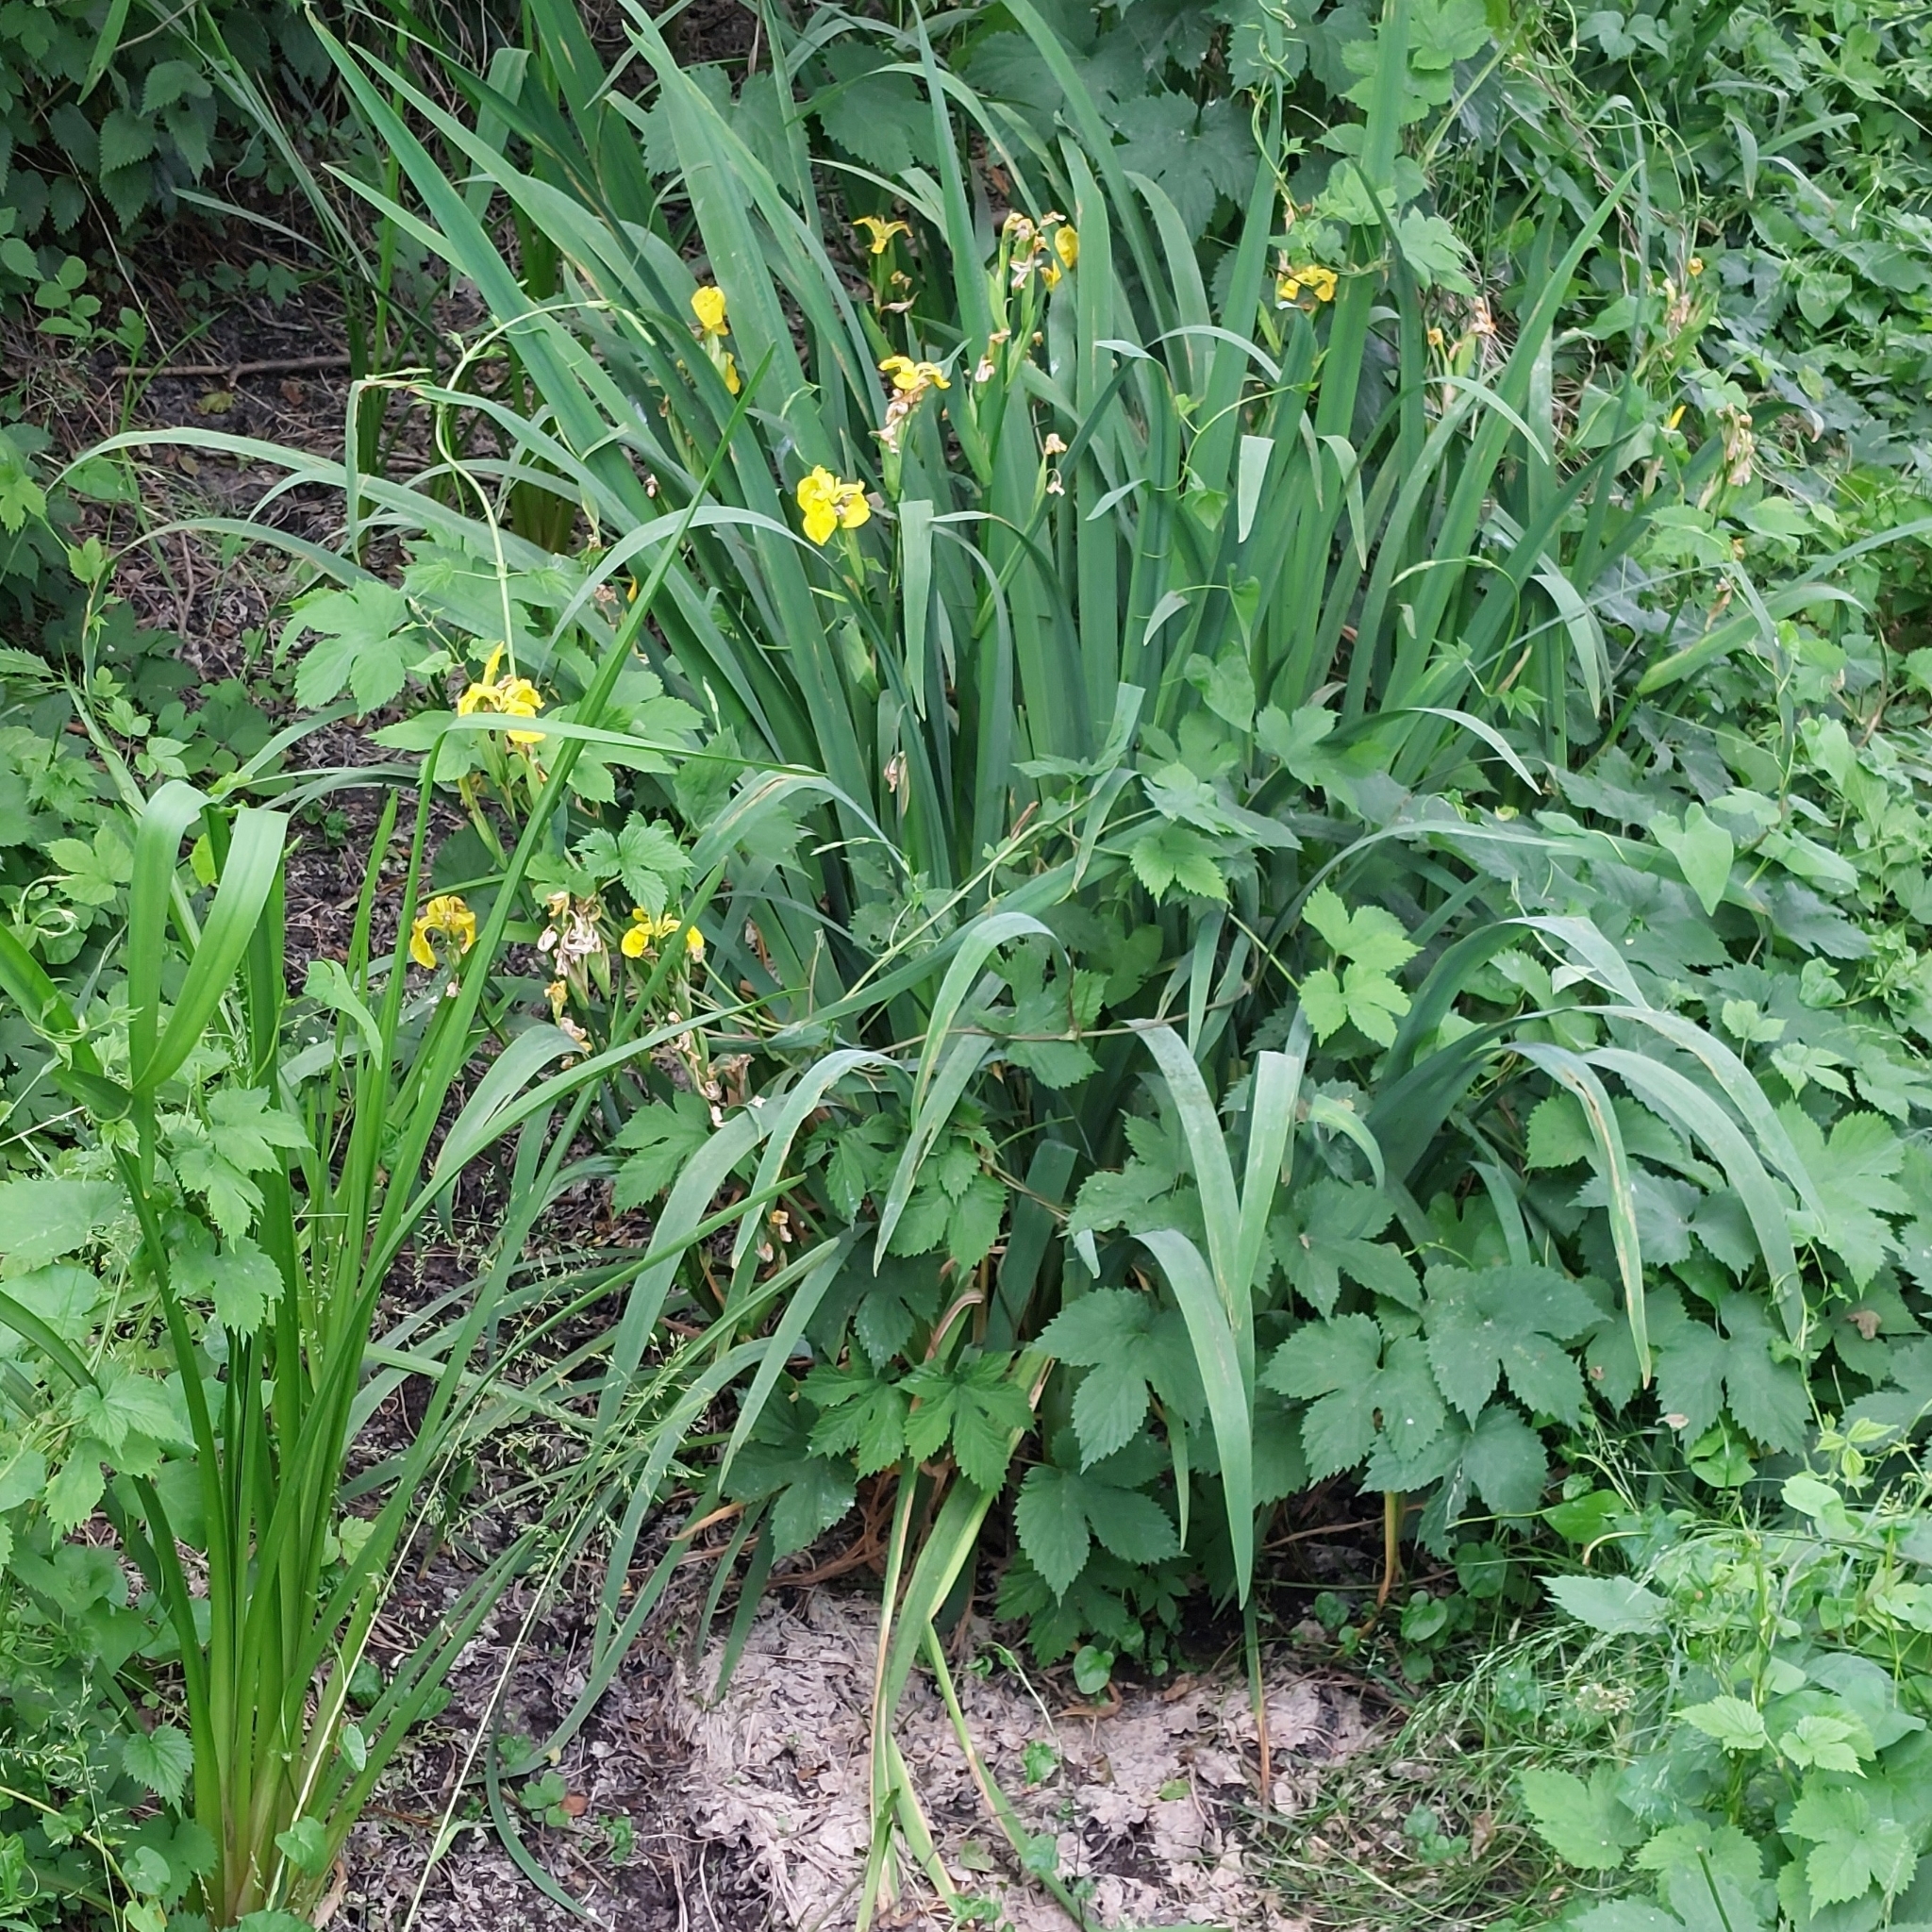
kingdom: Plantae
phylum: Tracheophyta
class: Liliopsida
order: Asparagales
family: Iridaceae
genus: Iris
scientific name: Iris pseudacorus
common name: Yellow flag
